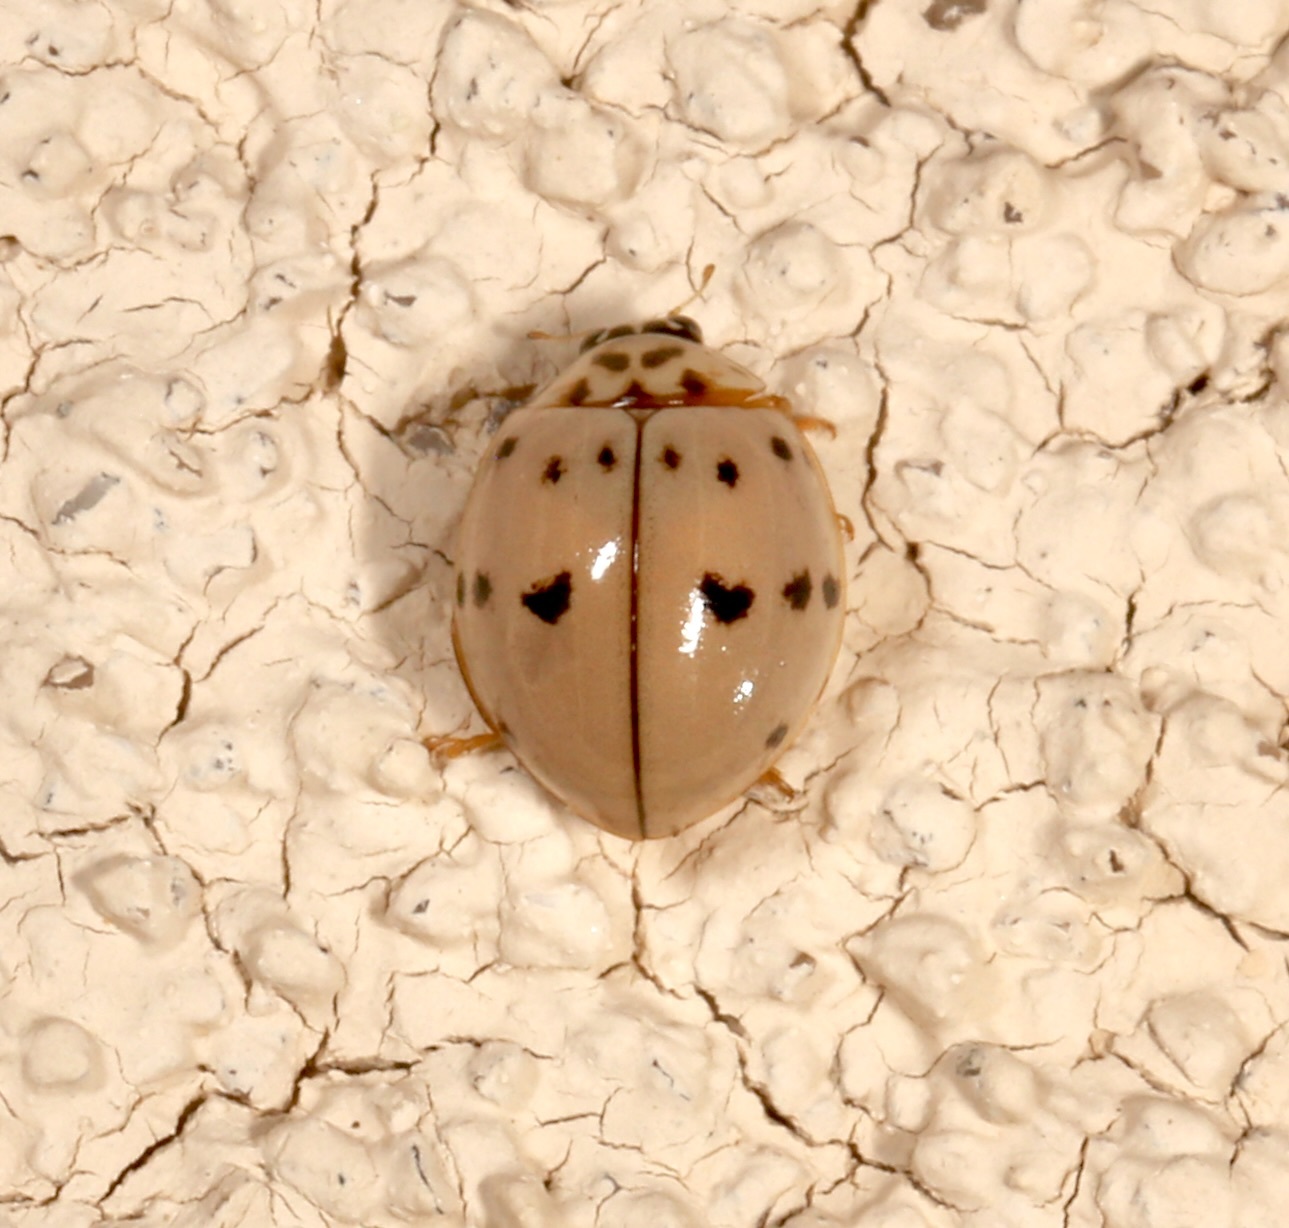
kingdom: Animalia
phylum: Arthropoda
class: Insecta
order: Coleoptera
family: Coccinellidae
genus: Olla
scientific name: Olla v-nigrum
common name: Ashy gray lady beetle
